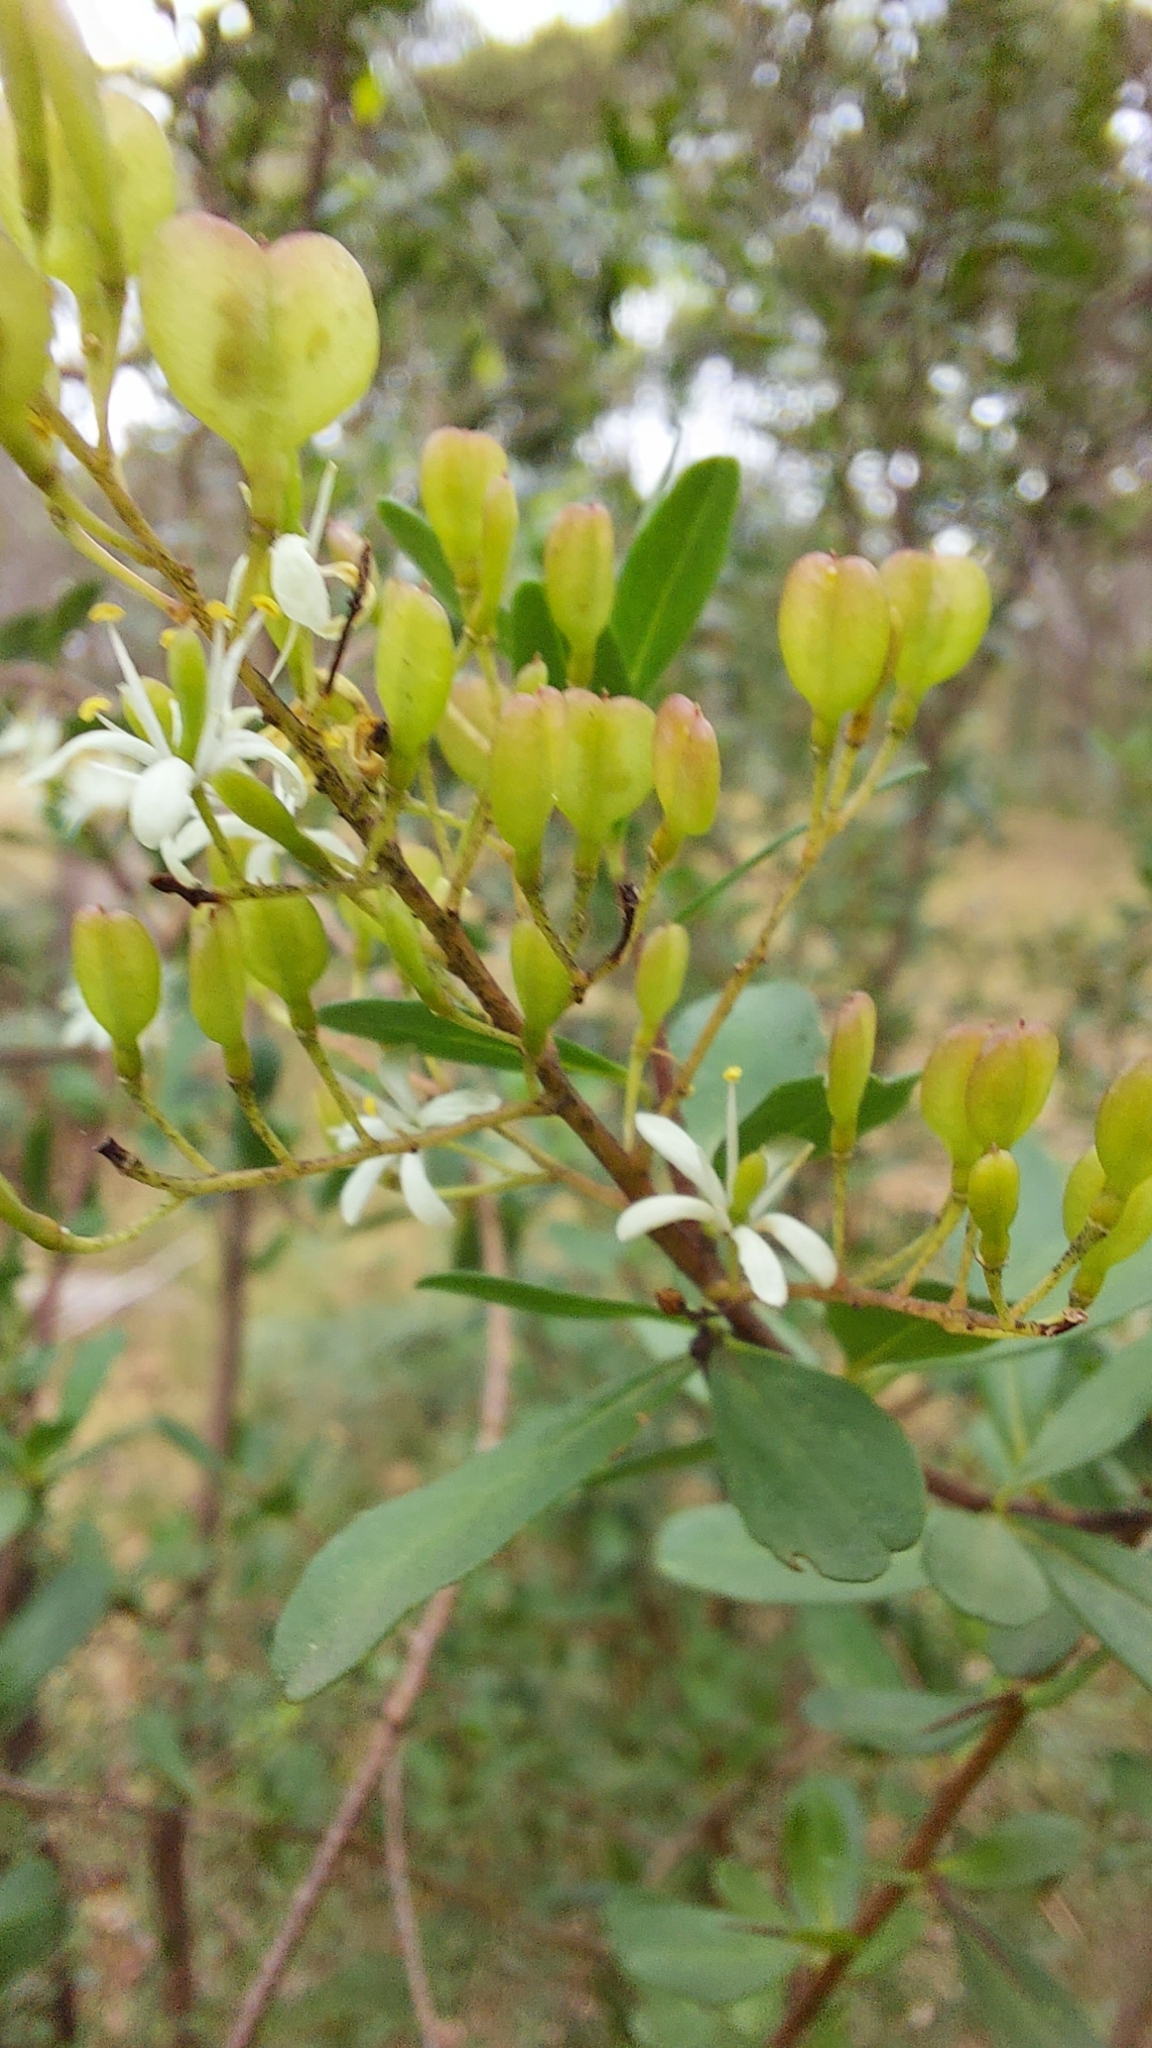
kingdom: Plantae
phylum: Tracheophyta
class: Magnoliopsida
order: Apiales
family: Pittosporaceae
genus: Bursaria
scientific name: Bursaria spinosa
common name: Australian blackthorn
